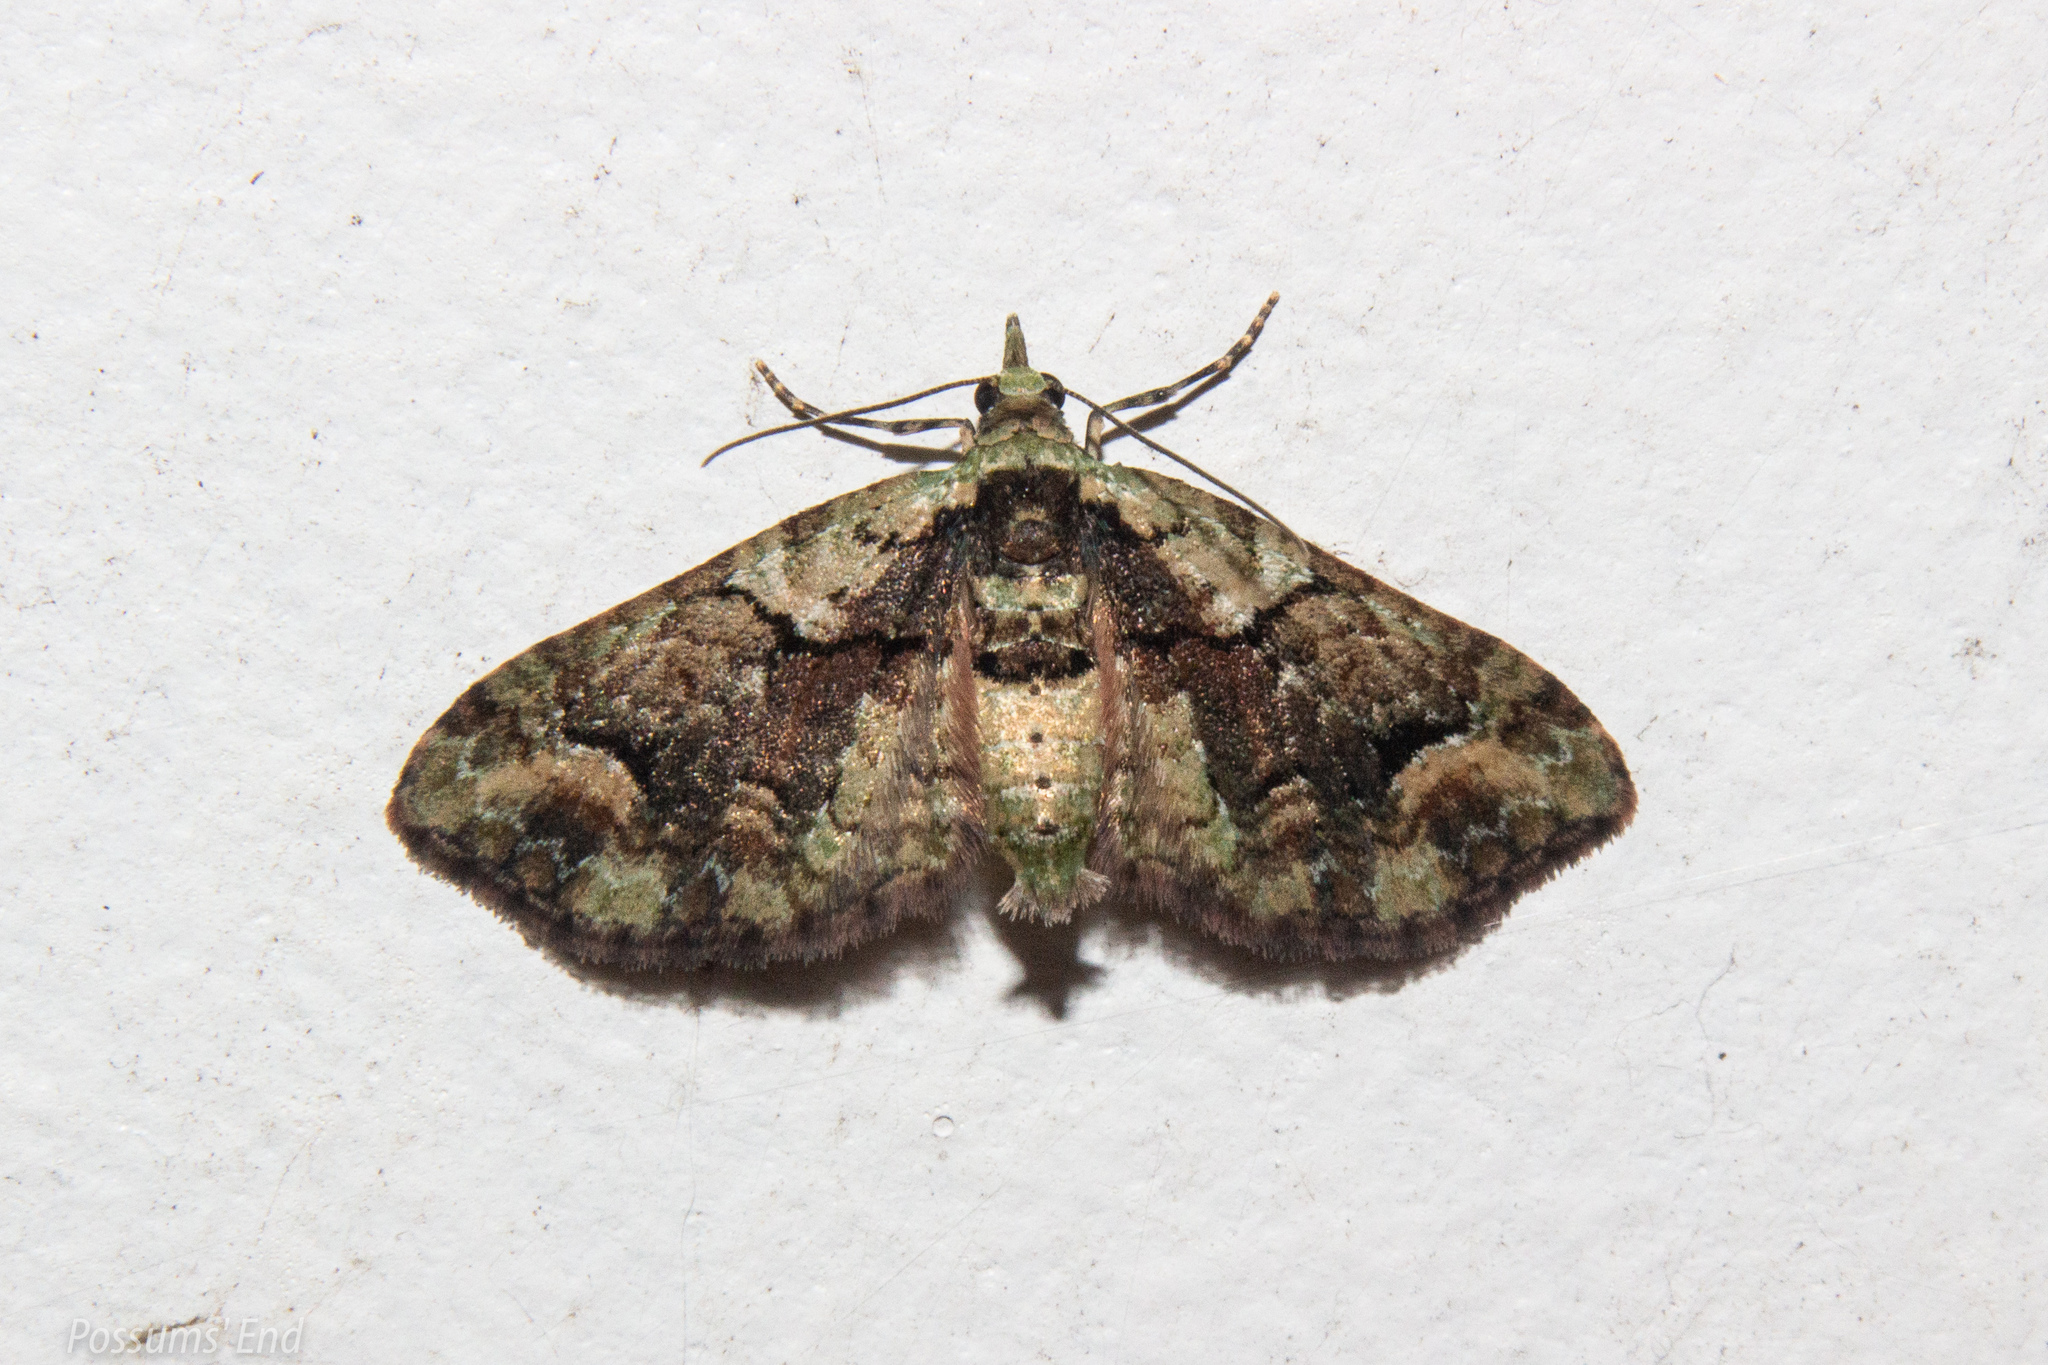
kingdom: Animalia
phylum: Arthropoda
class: Insecta
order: Lepidoptera
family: Geometridae
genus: Idaea
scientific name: Idaea mutanda
